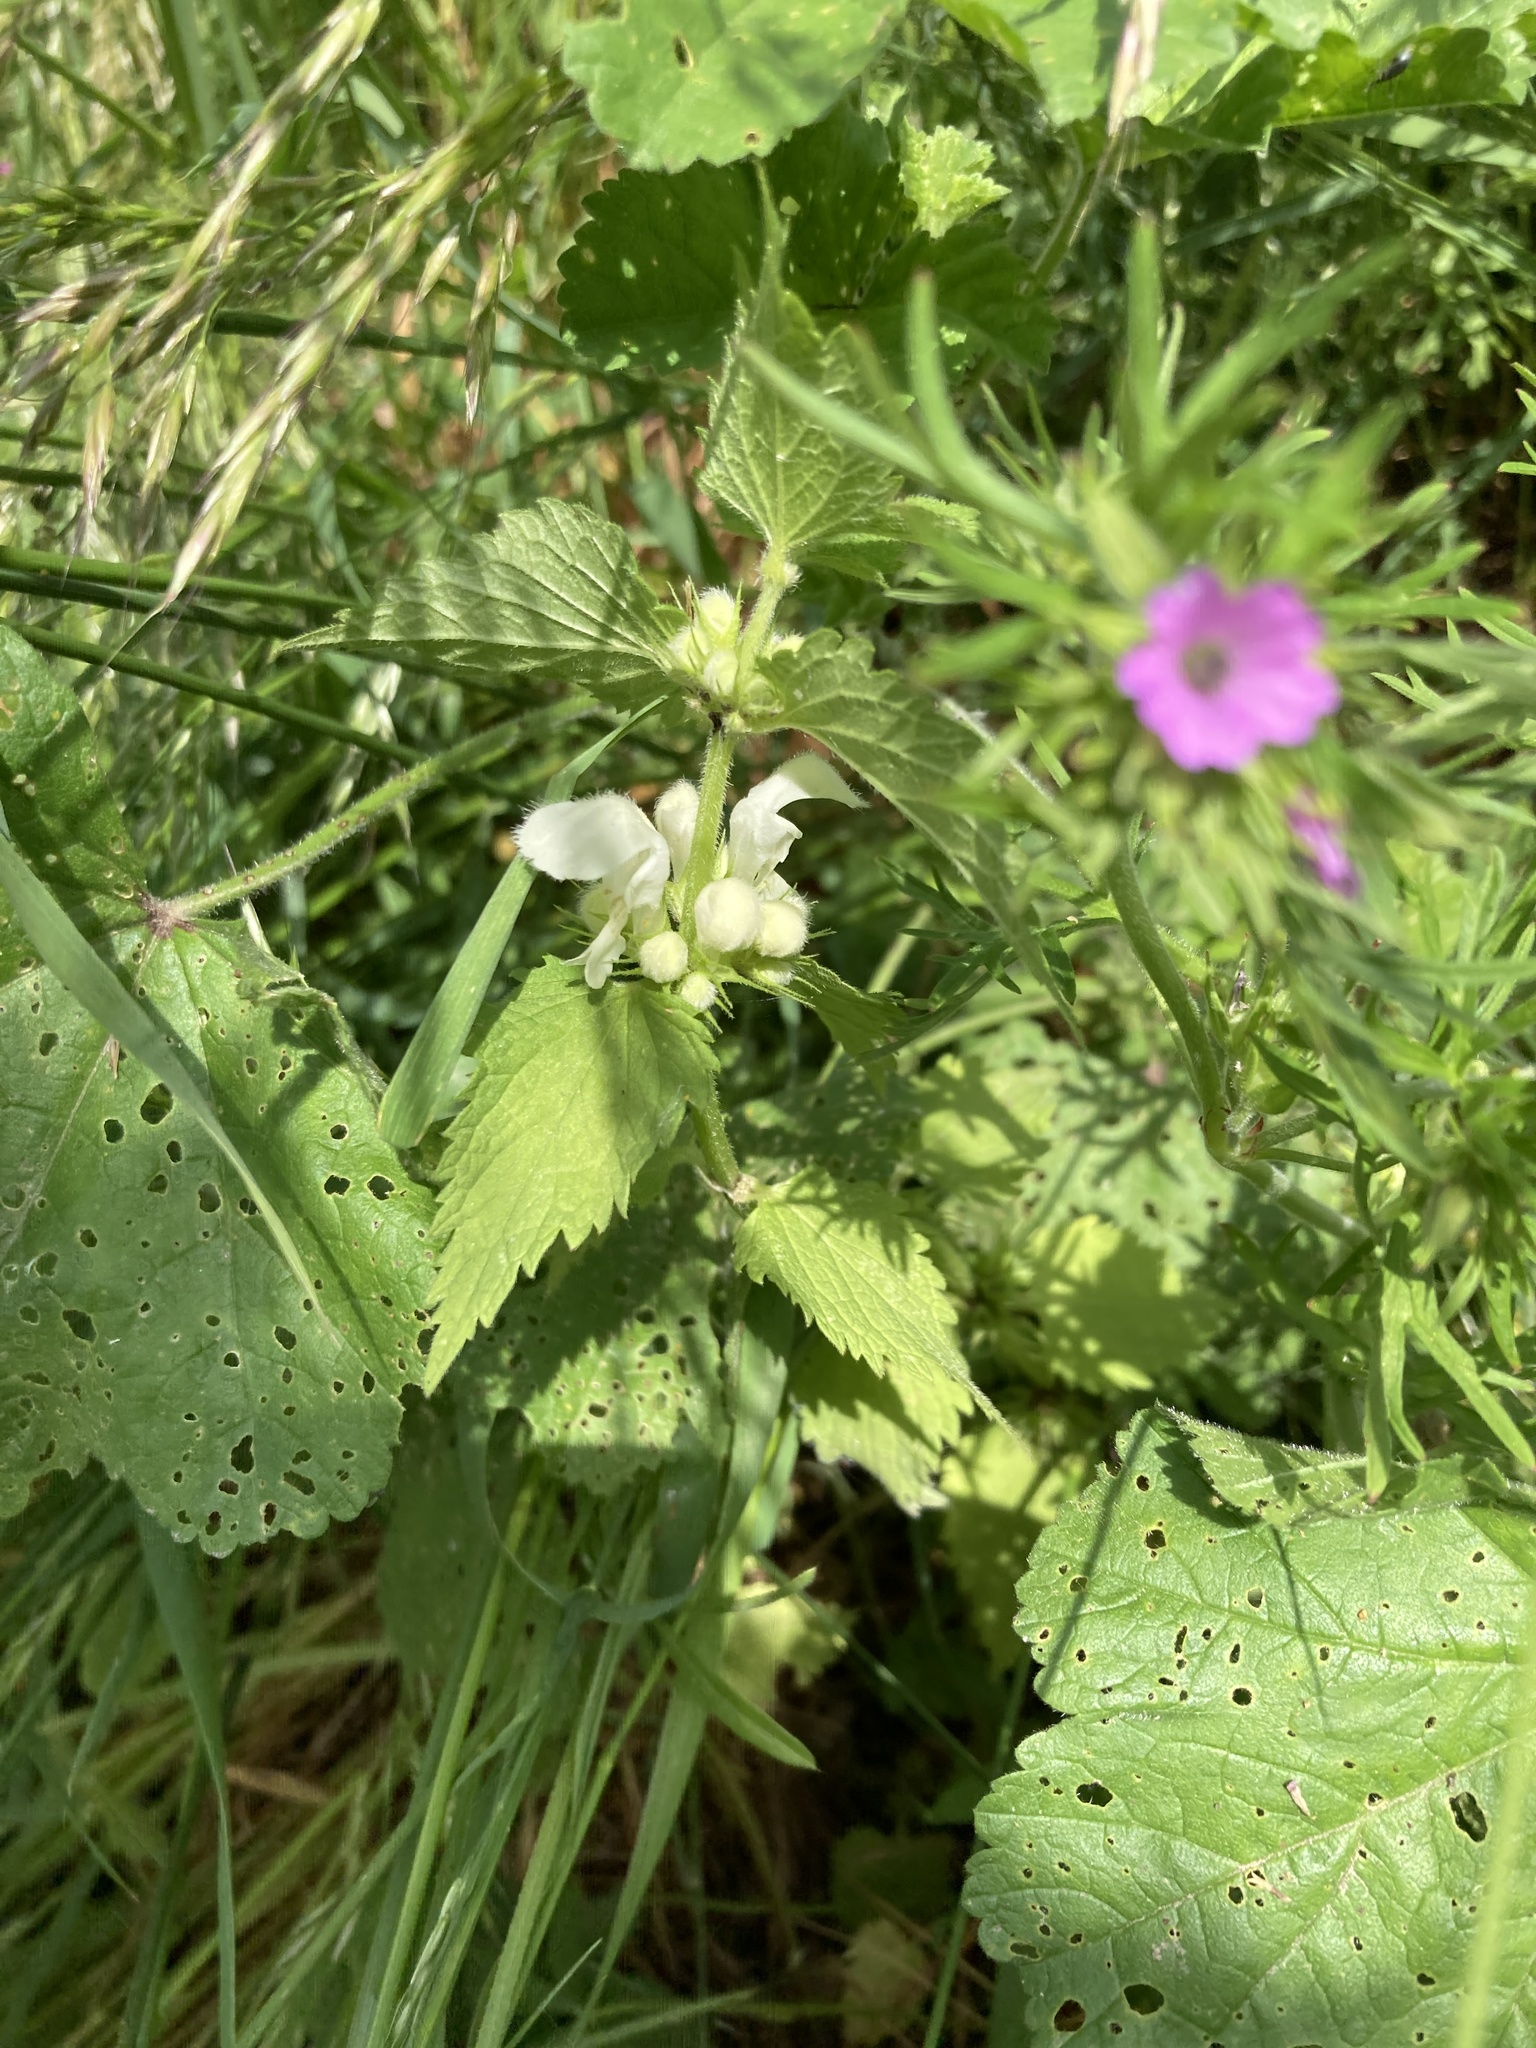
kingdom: Plantae
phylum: Tracheophyta
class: Magnoliopsida
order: Lamiales
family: Lamiaceae
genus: Lamium
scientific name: Lamium album
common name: White dead-nettle
